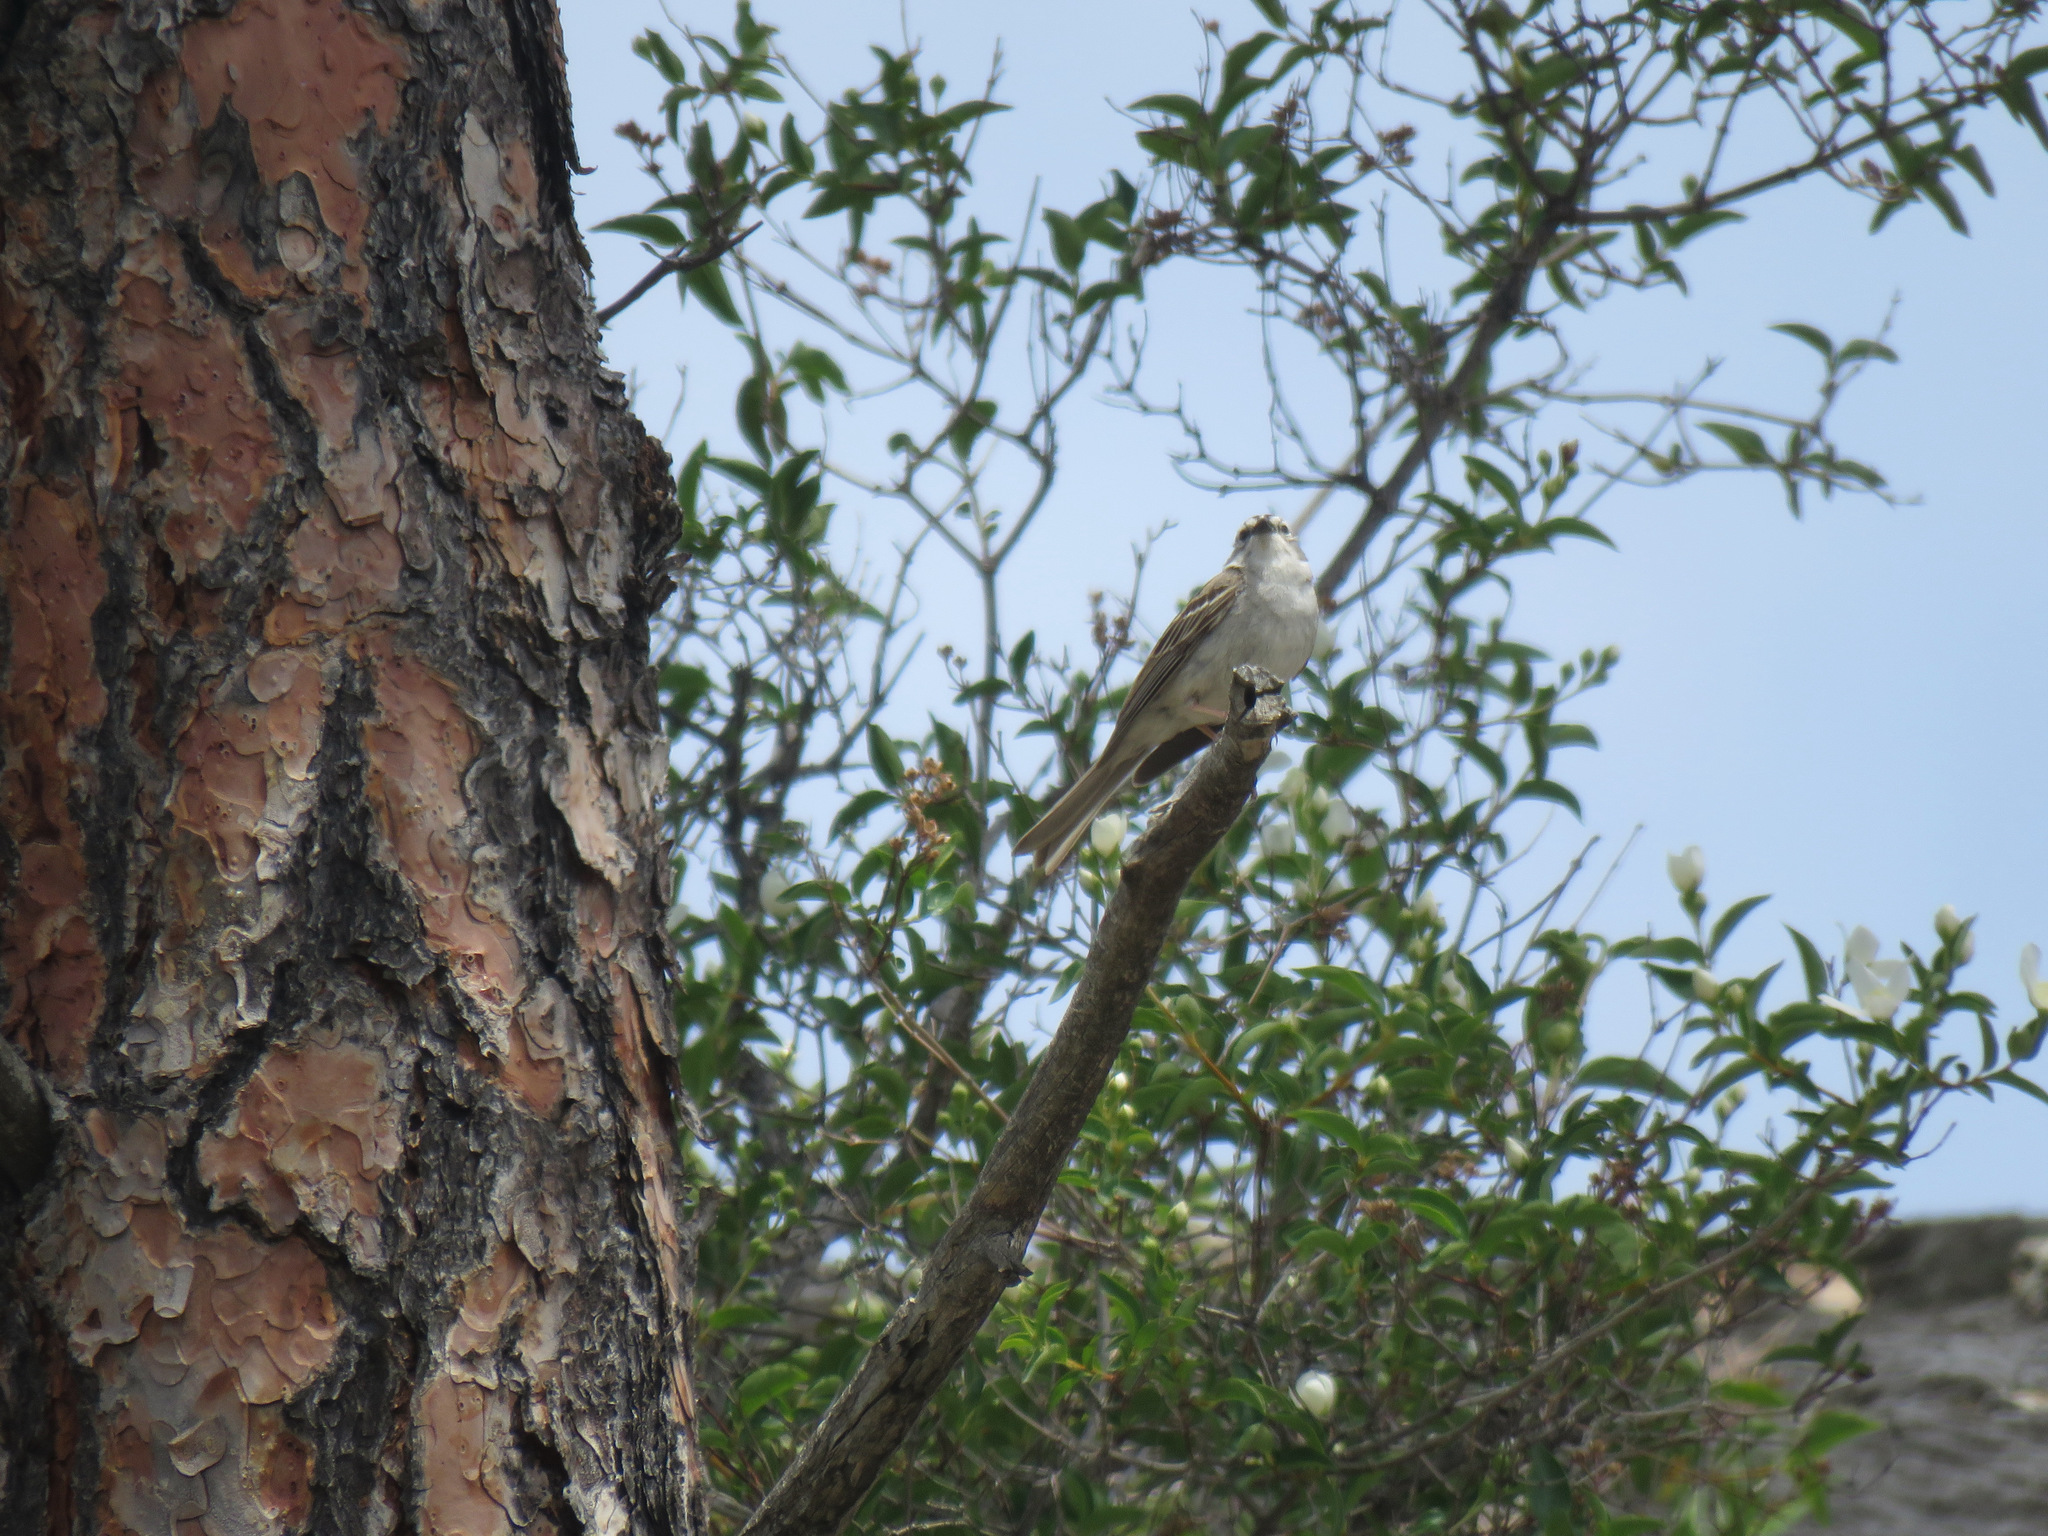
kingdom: Animalia
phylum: Chordata
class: Aves
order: Passeriformes
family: Passerellidae
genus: Spizella
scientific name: Spizella passerina
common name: Chipping sparrow
